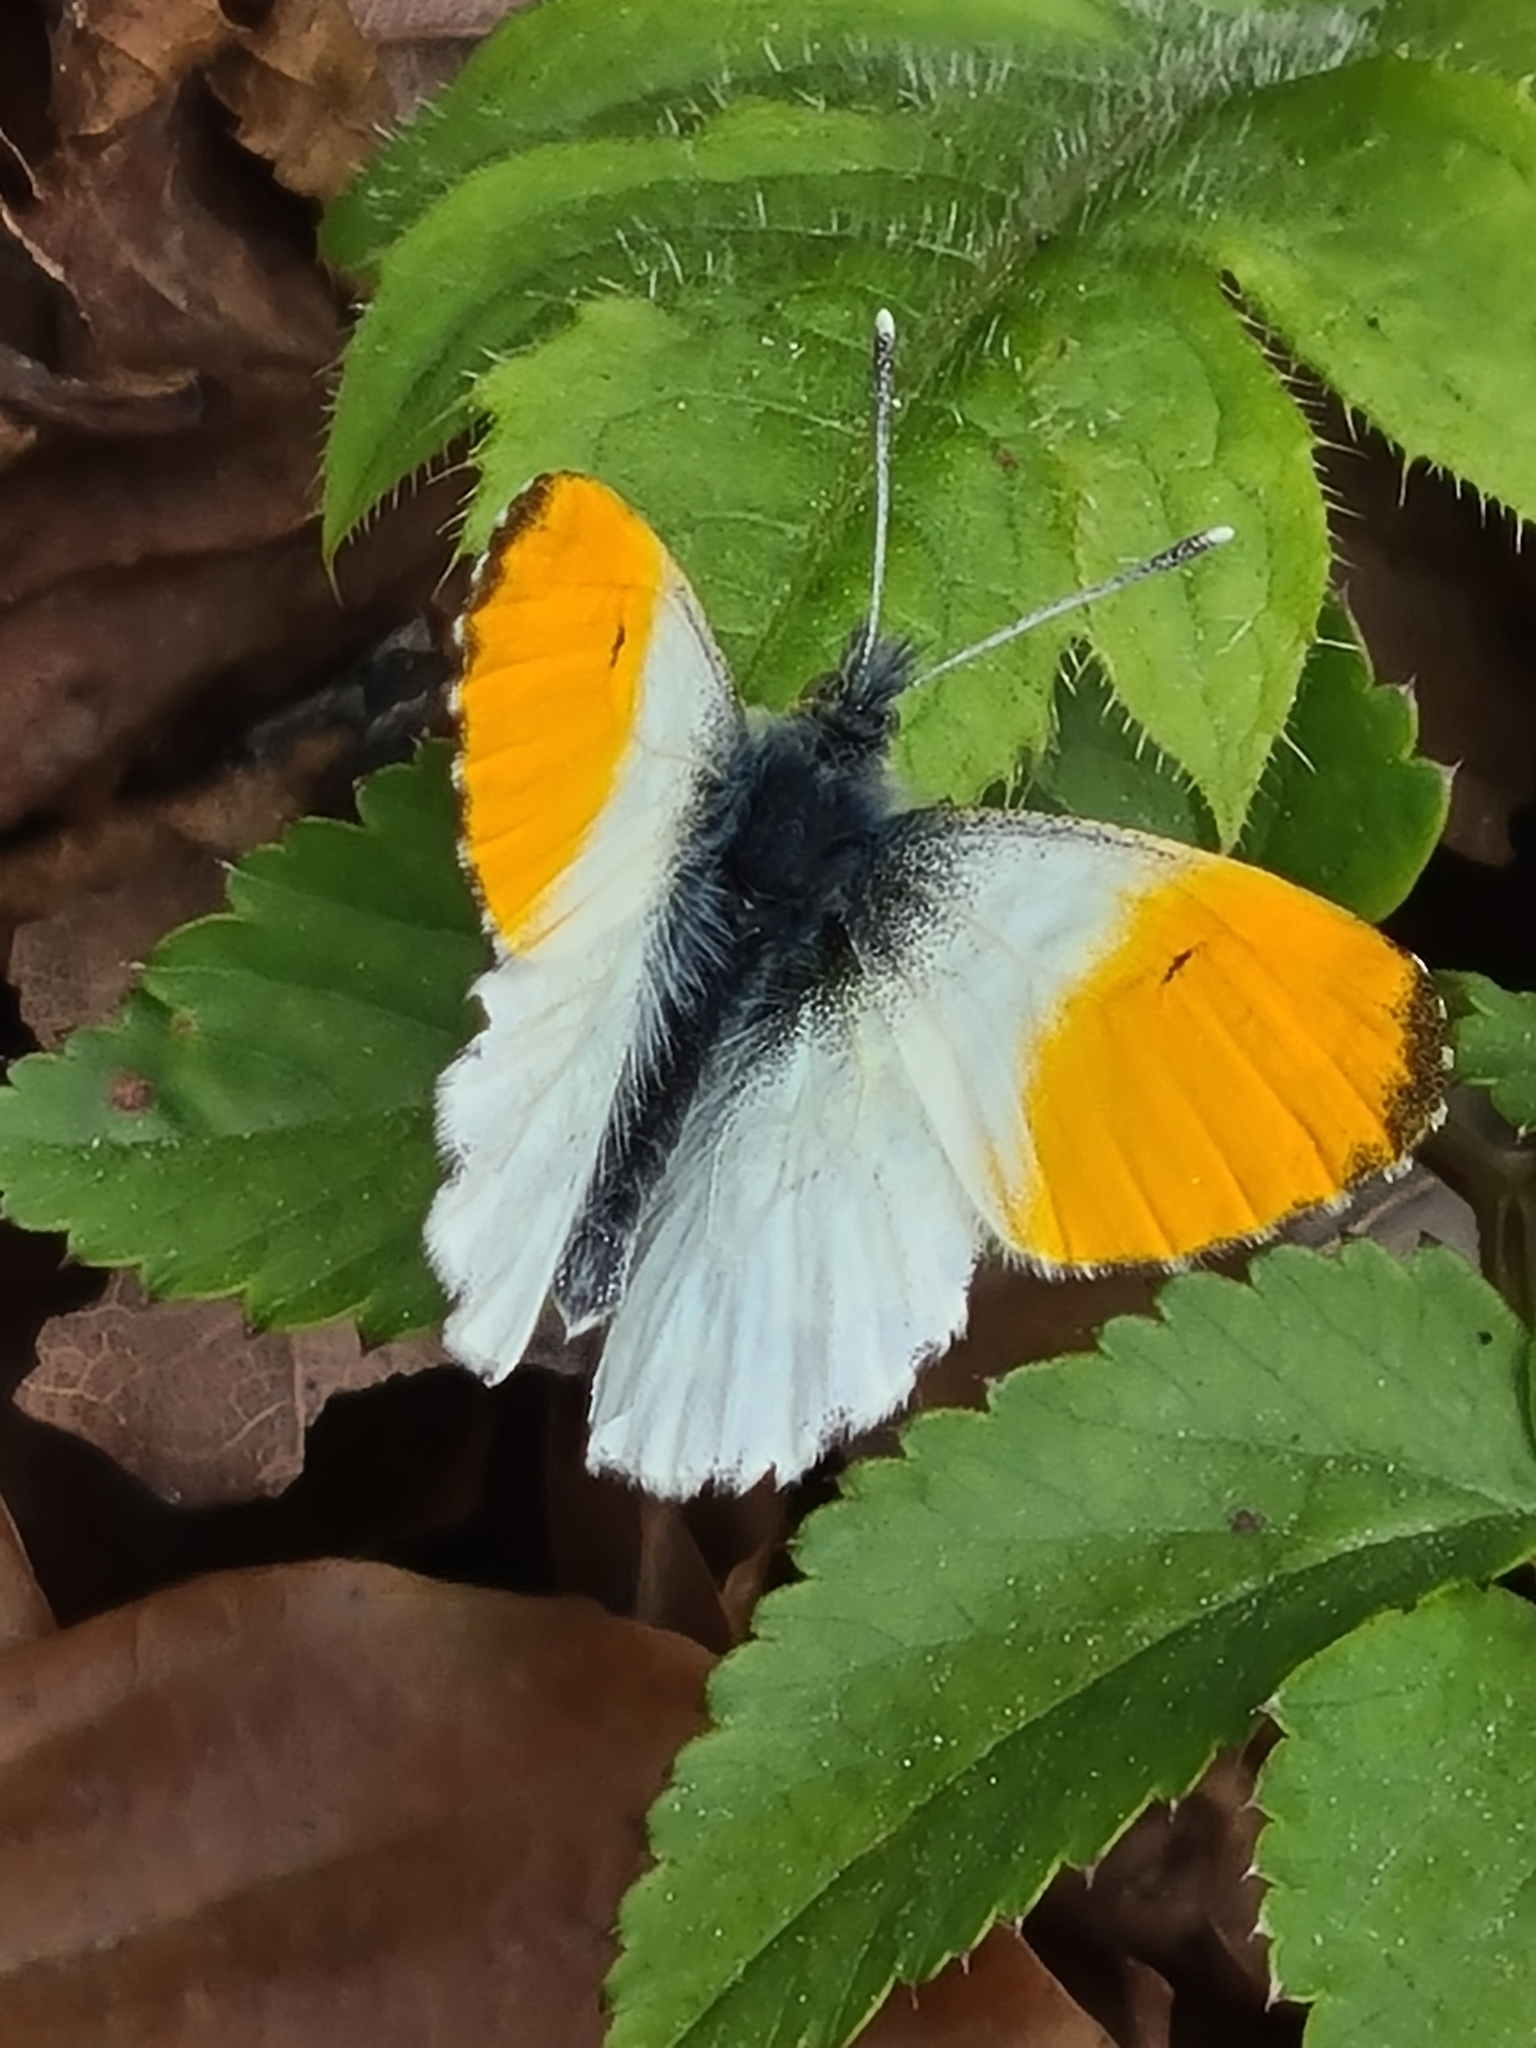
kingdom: Animalia
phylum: Arthropoda
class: Insecta
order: Lepidoptera
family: Pieridae
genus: Anthocharis
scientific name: Anthocharis cardamines
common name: Orange-tip
